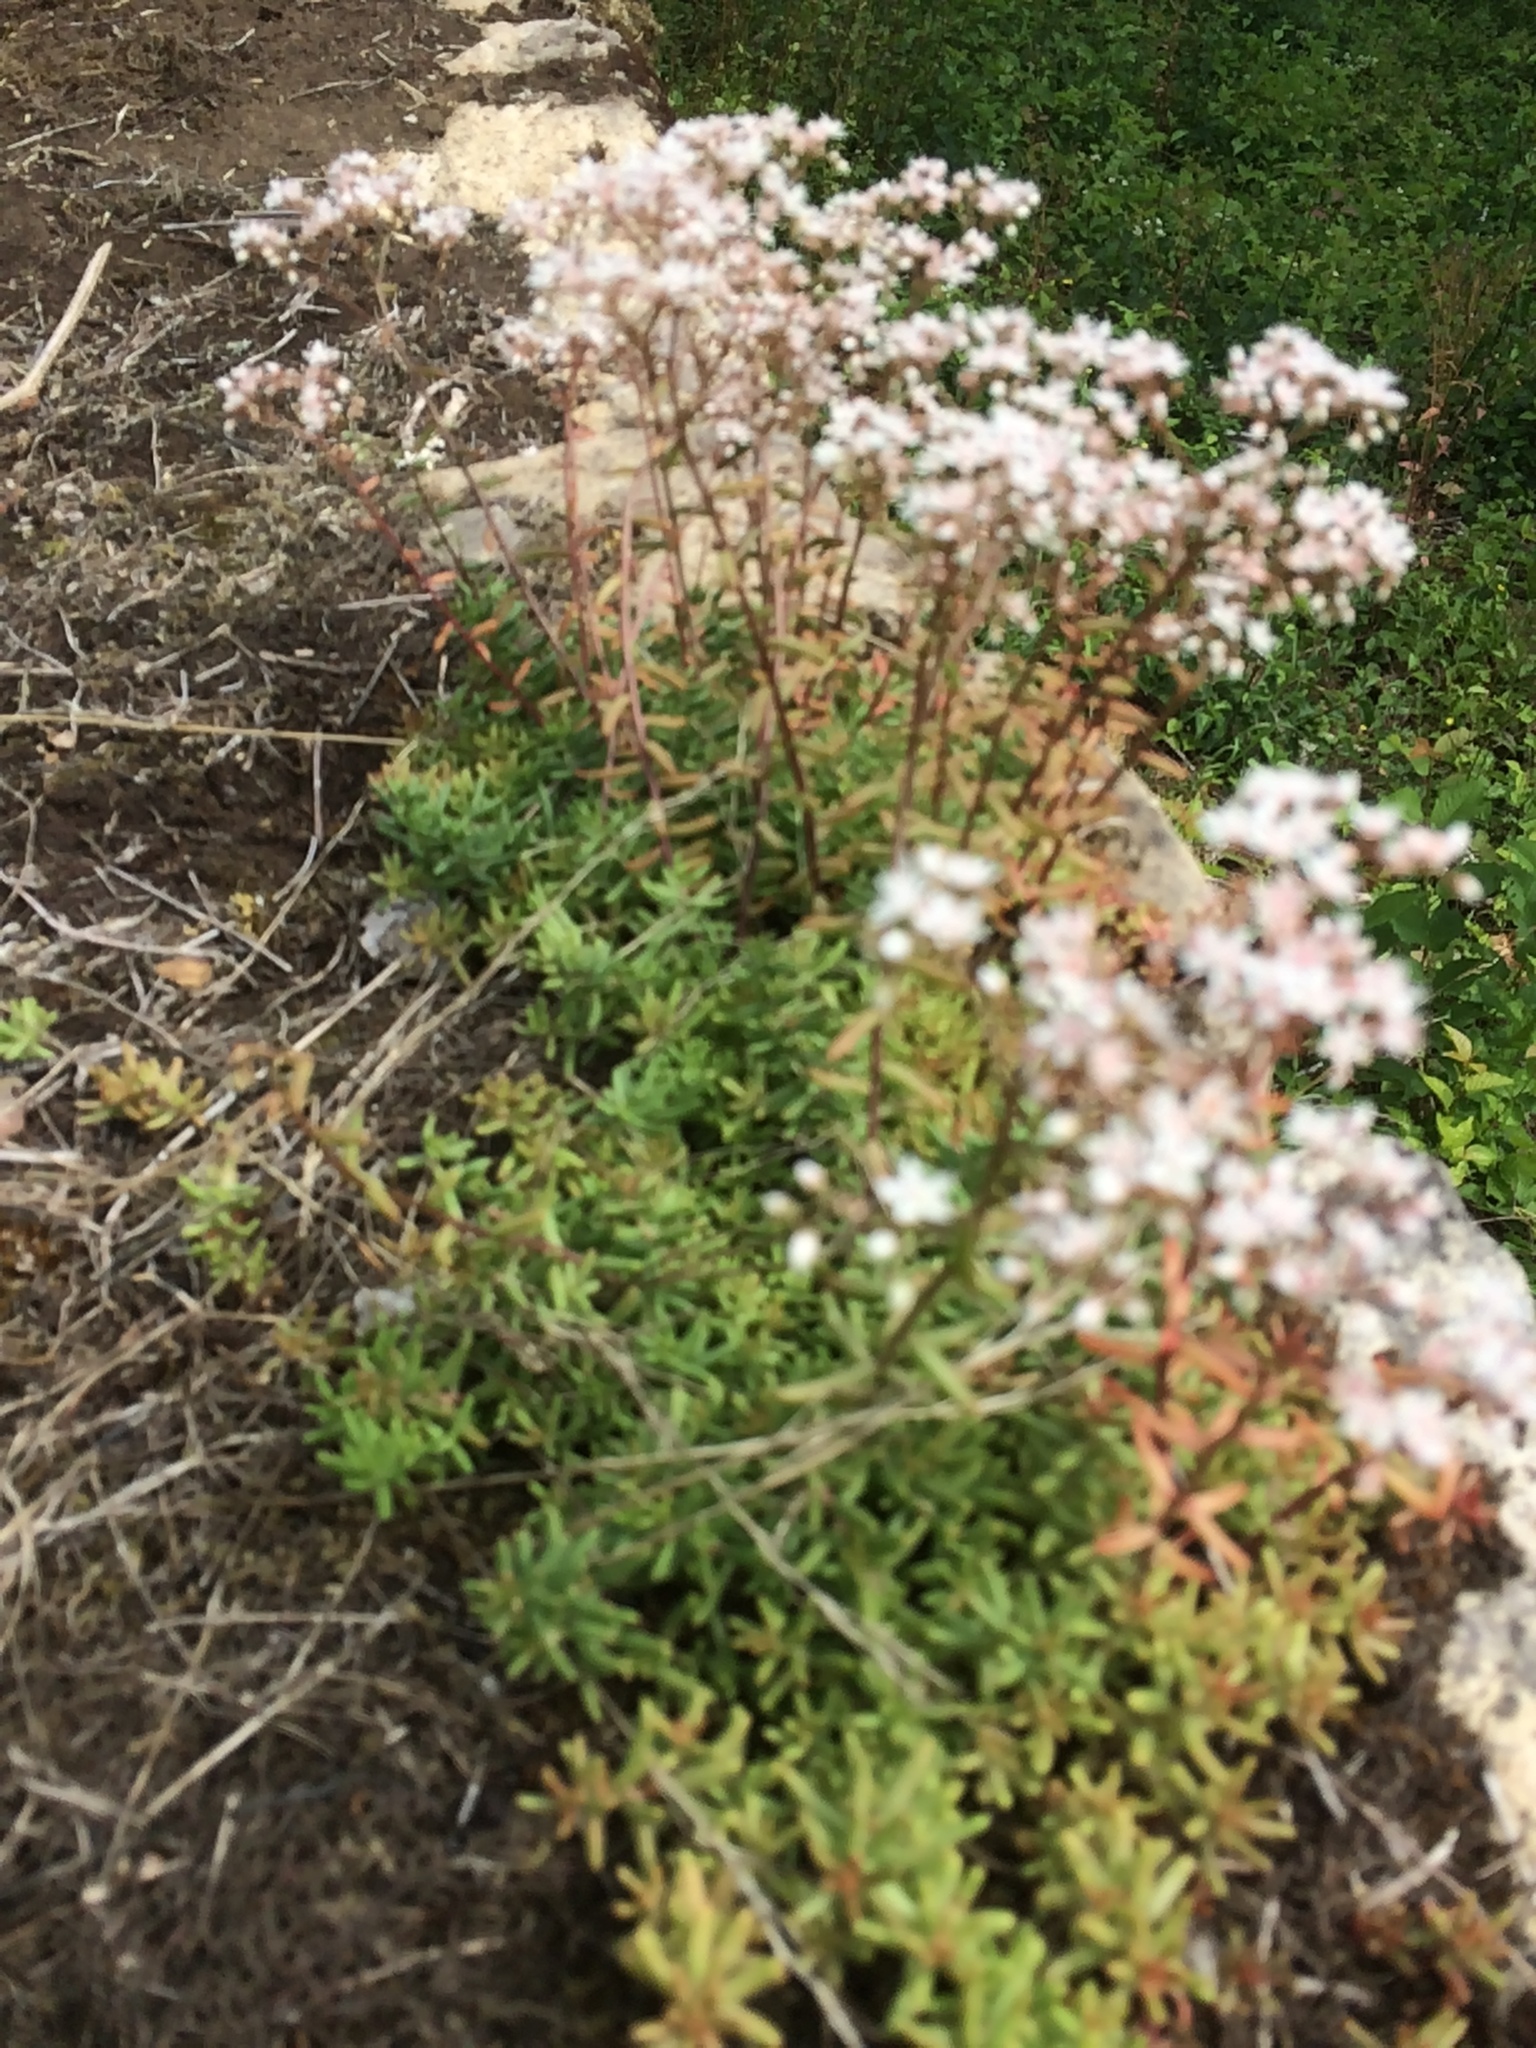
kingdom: Plantae
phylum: Tracheophyta
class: Magnoliopsida
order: Saxifragales
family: Crassulaceae
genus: Sedum
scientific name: Sedum album
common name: White stonecrop
